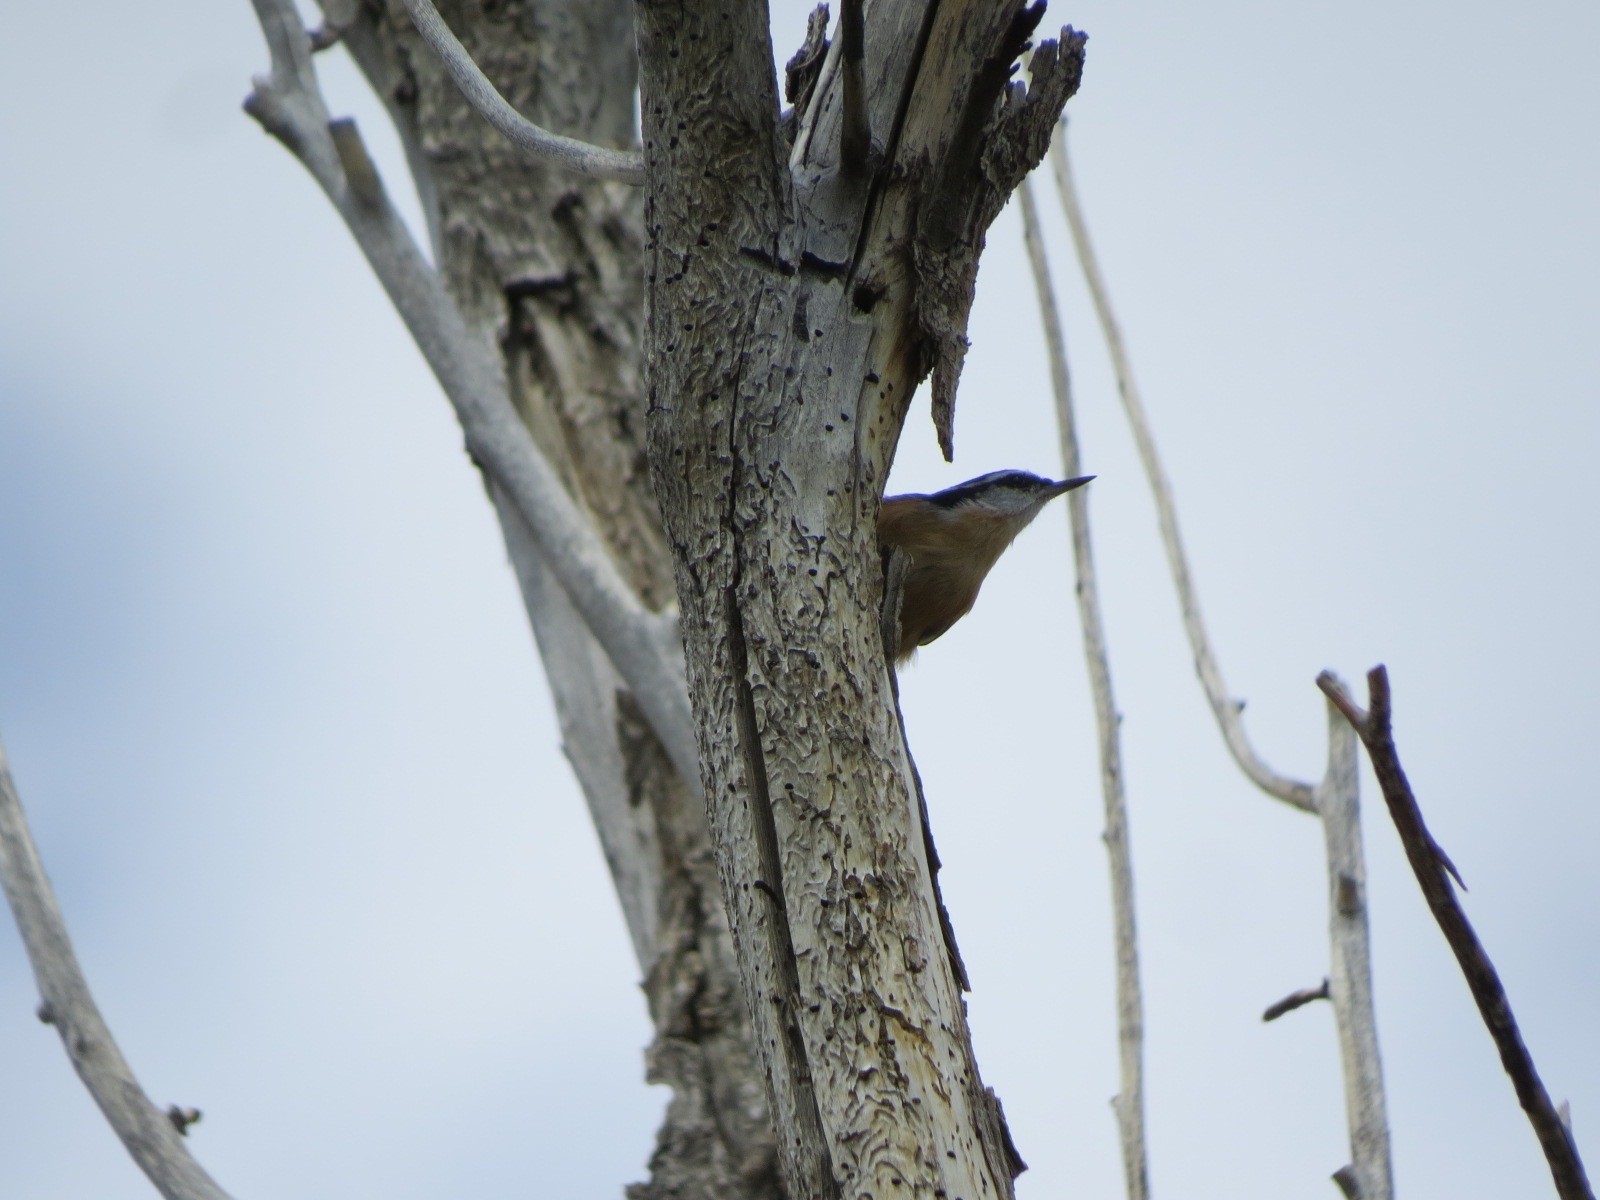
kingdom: Animalia
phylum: Chordata
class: Aves
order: Passeriformes
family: Sittidae
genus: Sitta
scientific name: Sitta canadensis
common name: Red-breasted nuthatch
